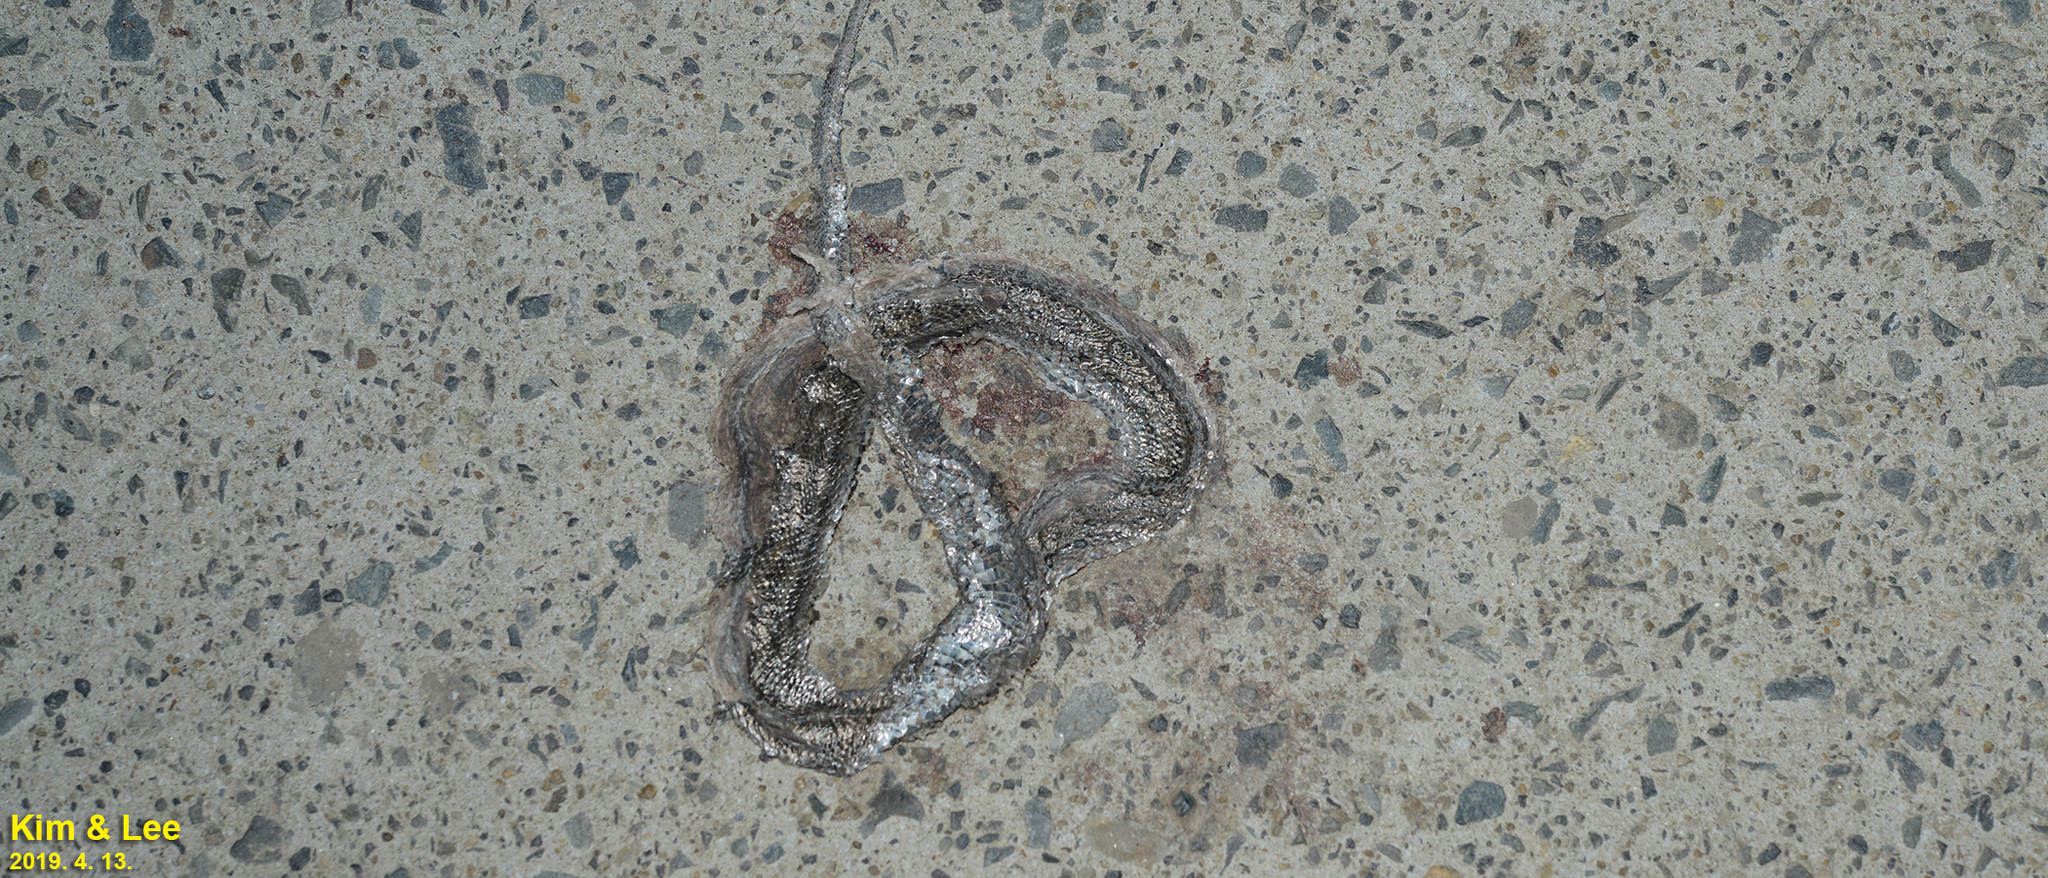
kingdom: Animalia
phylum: Chordata
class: Squamata
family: Colubridae
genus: Oocatochus
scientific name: Oocatochus rufodorsatus
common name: Frog-eating rat snake
